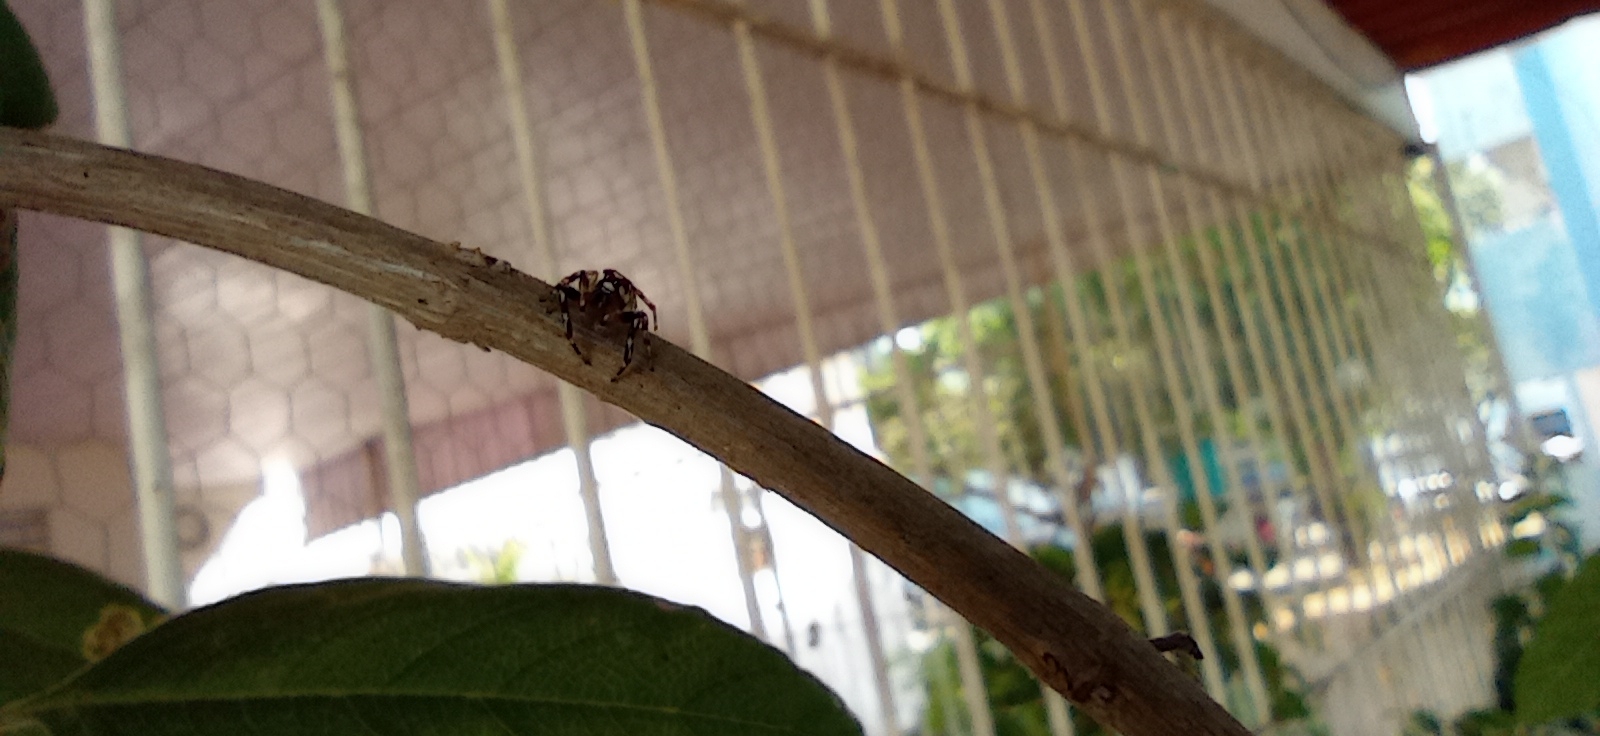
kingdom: Animalia
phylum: Arthropoda
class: Arachnida
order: Araneae
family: Salticidae
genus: Chira
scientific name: Chira
